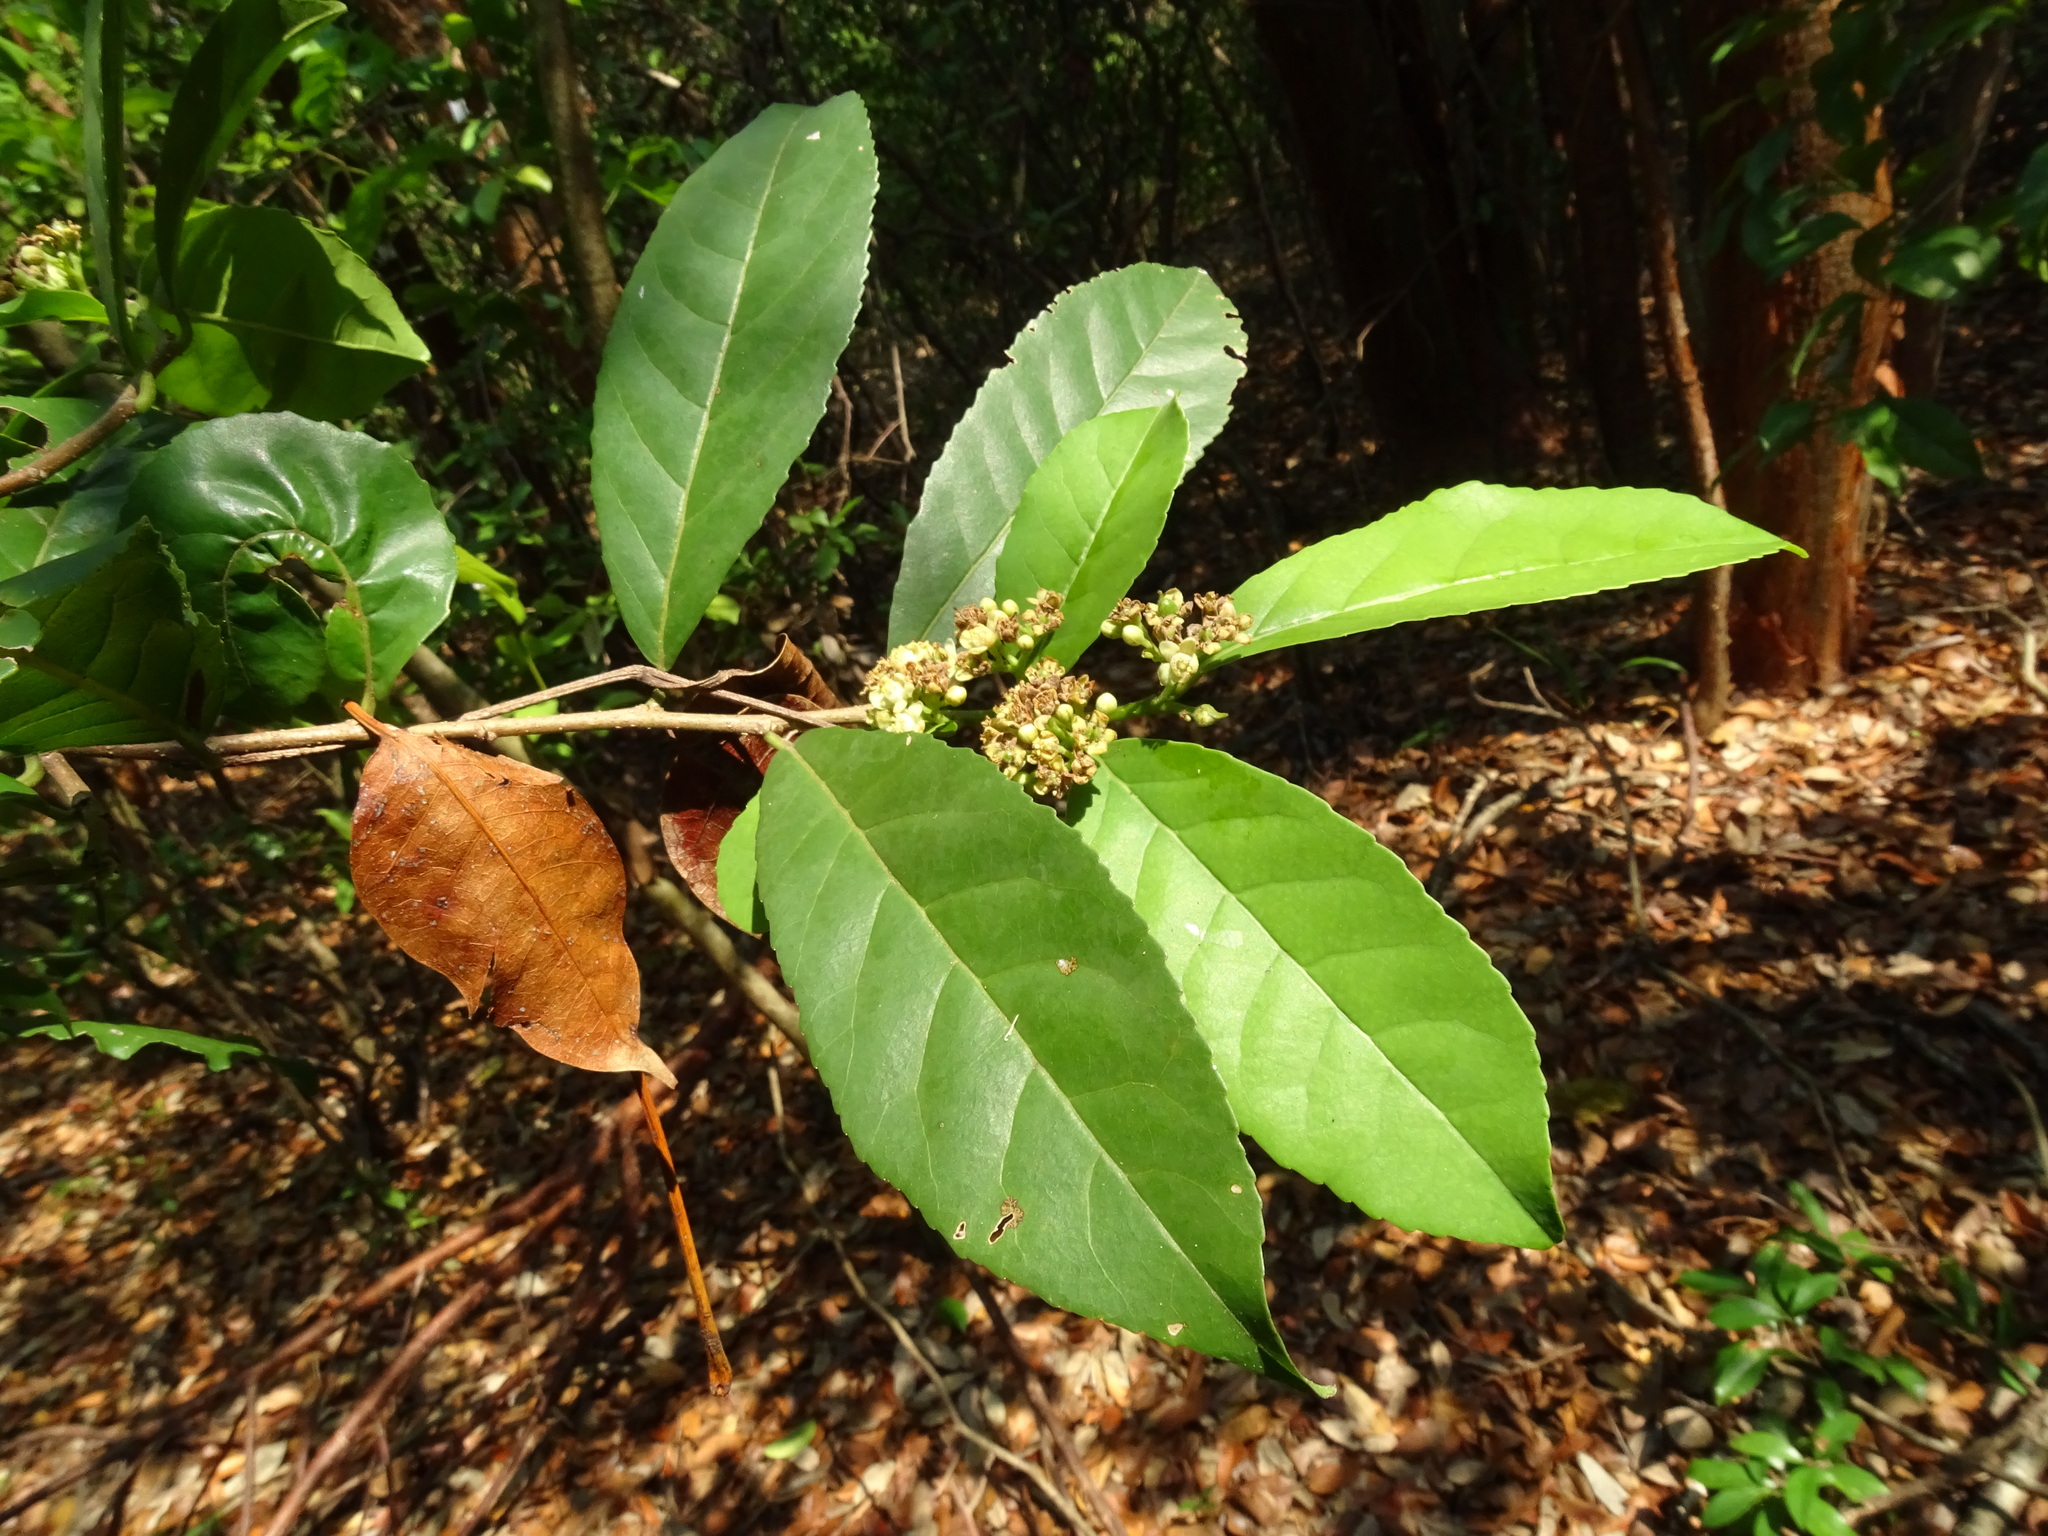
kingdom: Plantae
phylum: Tracheophyta
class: Magnoliopsida
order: Malpighiales
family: Salicaceae
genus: Casearia
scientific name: Casearia corymbosa
